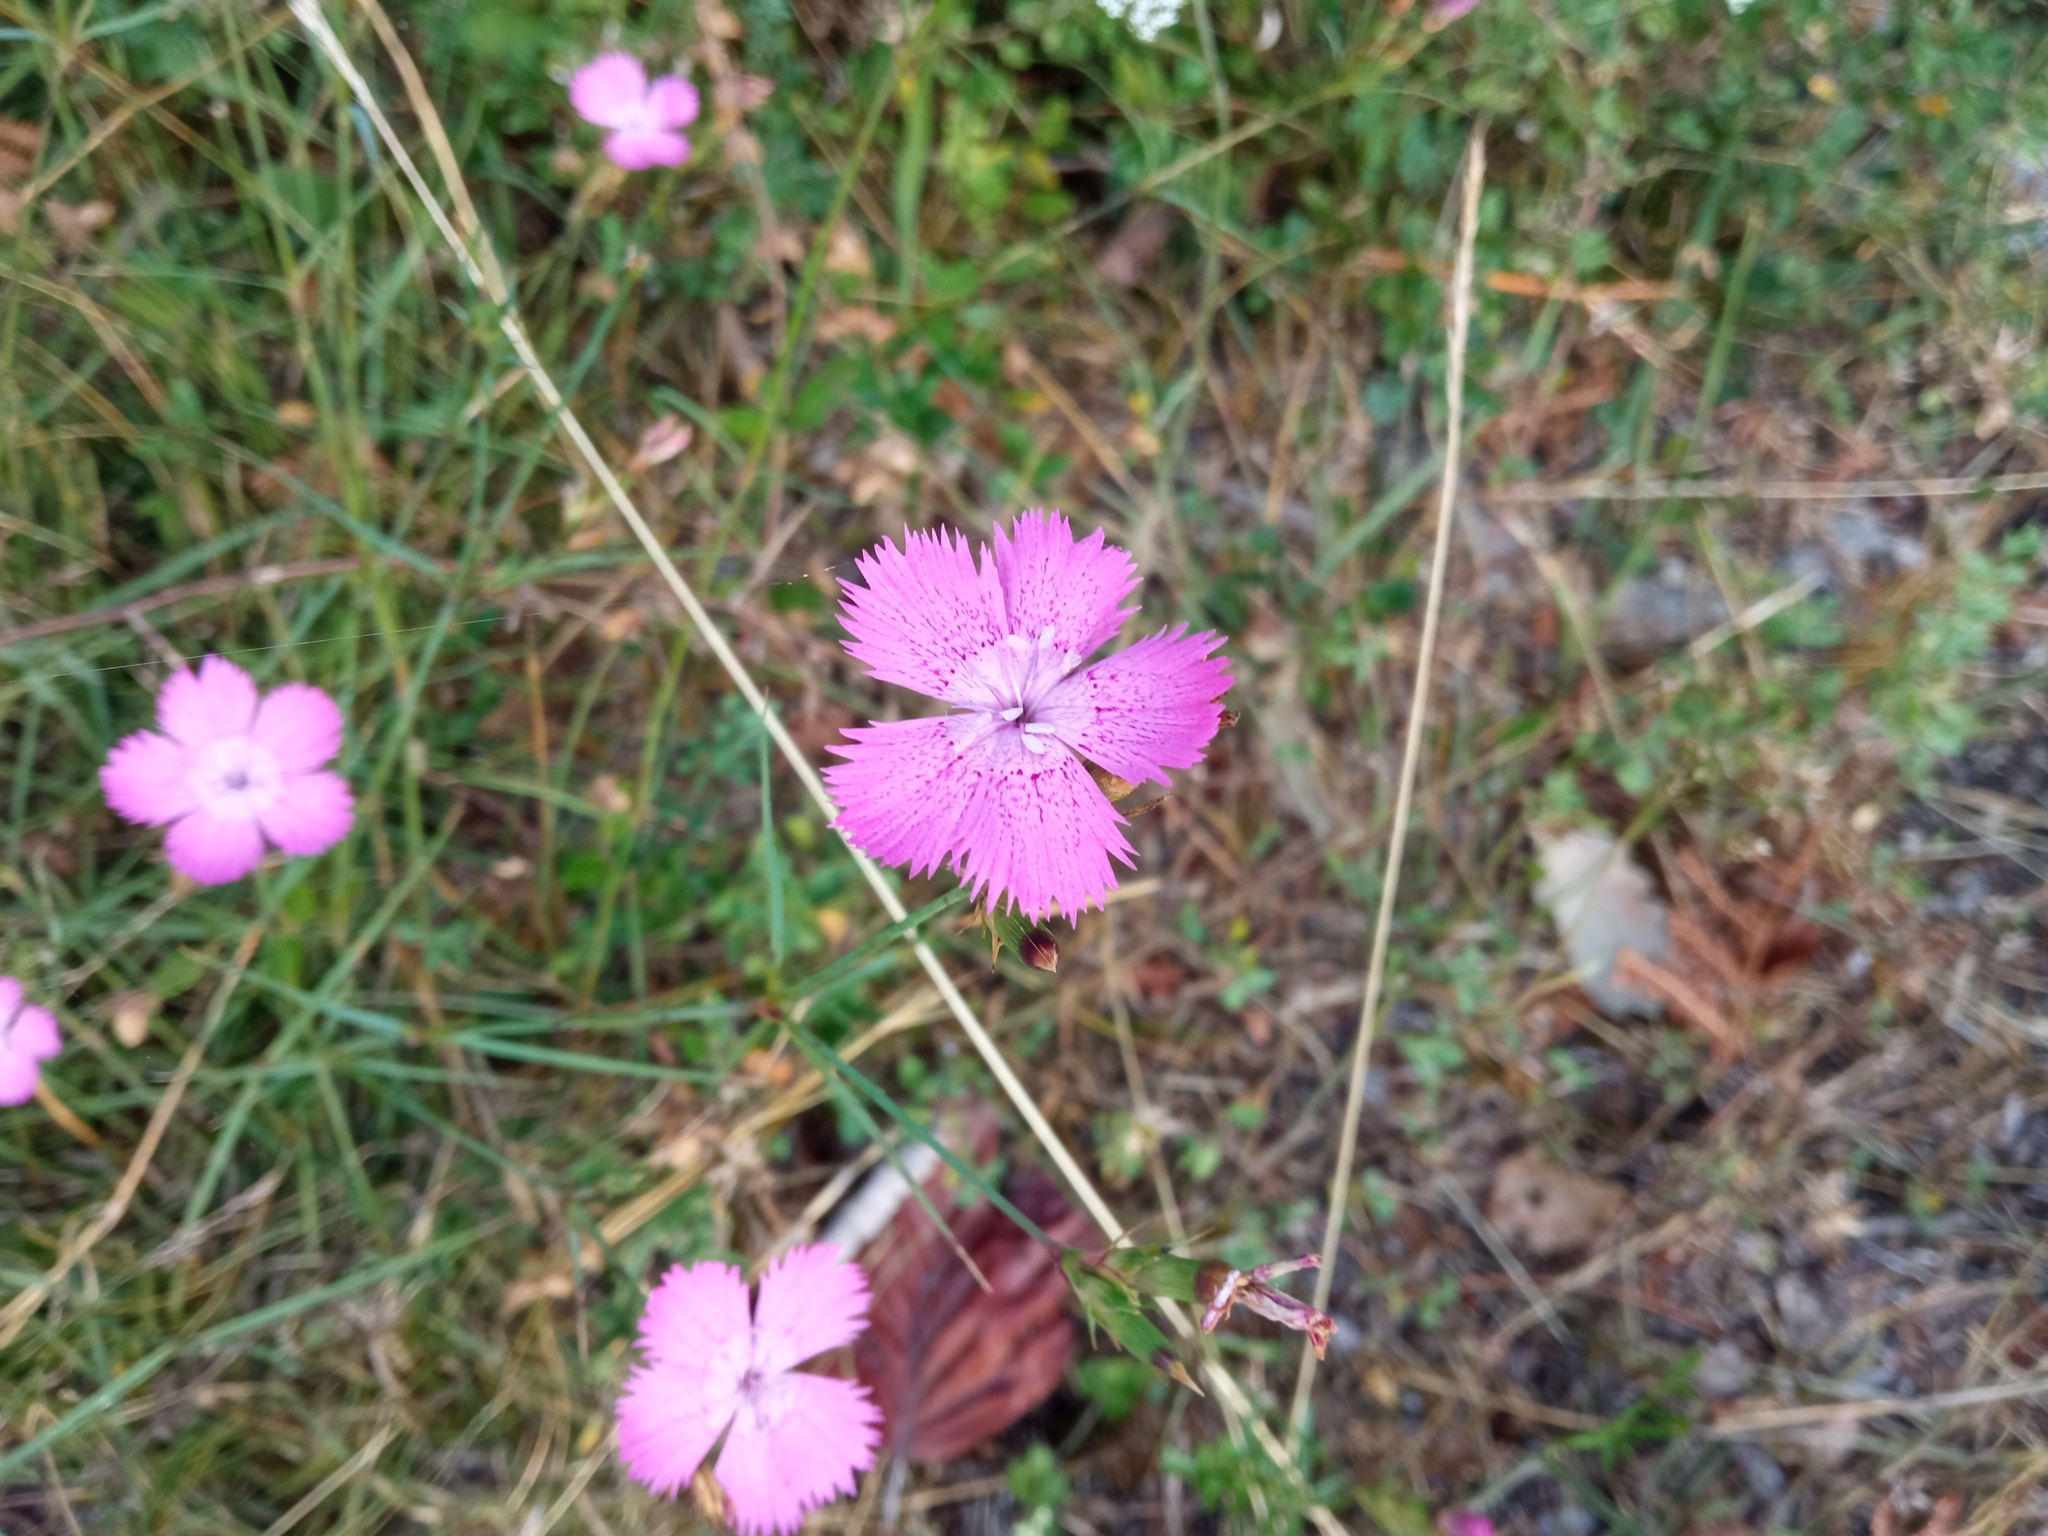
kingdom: Plantae
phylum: Tracheophyta
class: Magnoliopsida
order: Caryophyllales
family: Caryophyllaceae
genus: Dianthus
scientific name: Dianthus seguieri
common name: Ragged pink
